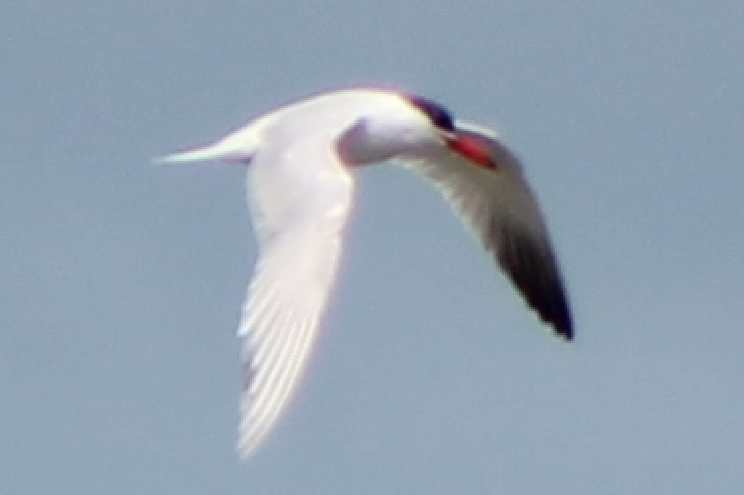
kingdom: Animalia
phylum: Chordata
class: Aves
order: Charadriiformes
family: Laridae
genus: Hydroprogne
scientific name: Hydroprogne caspia
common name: Caspian tern
